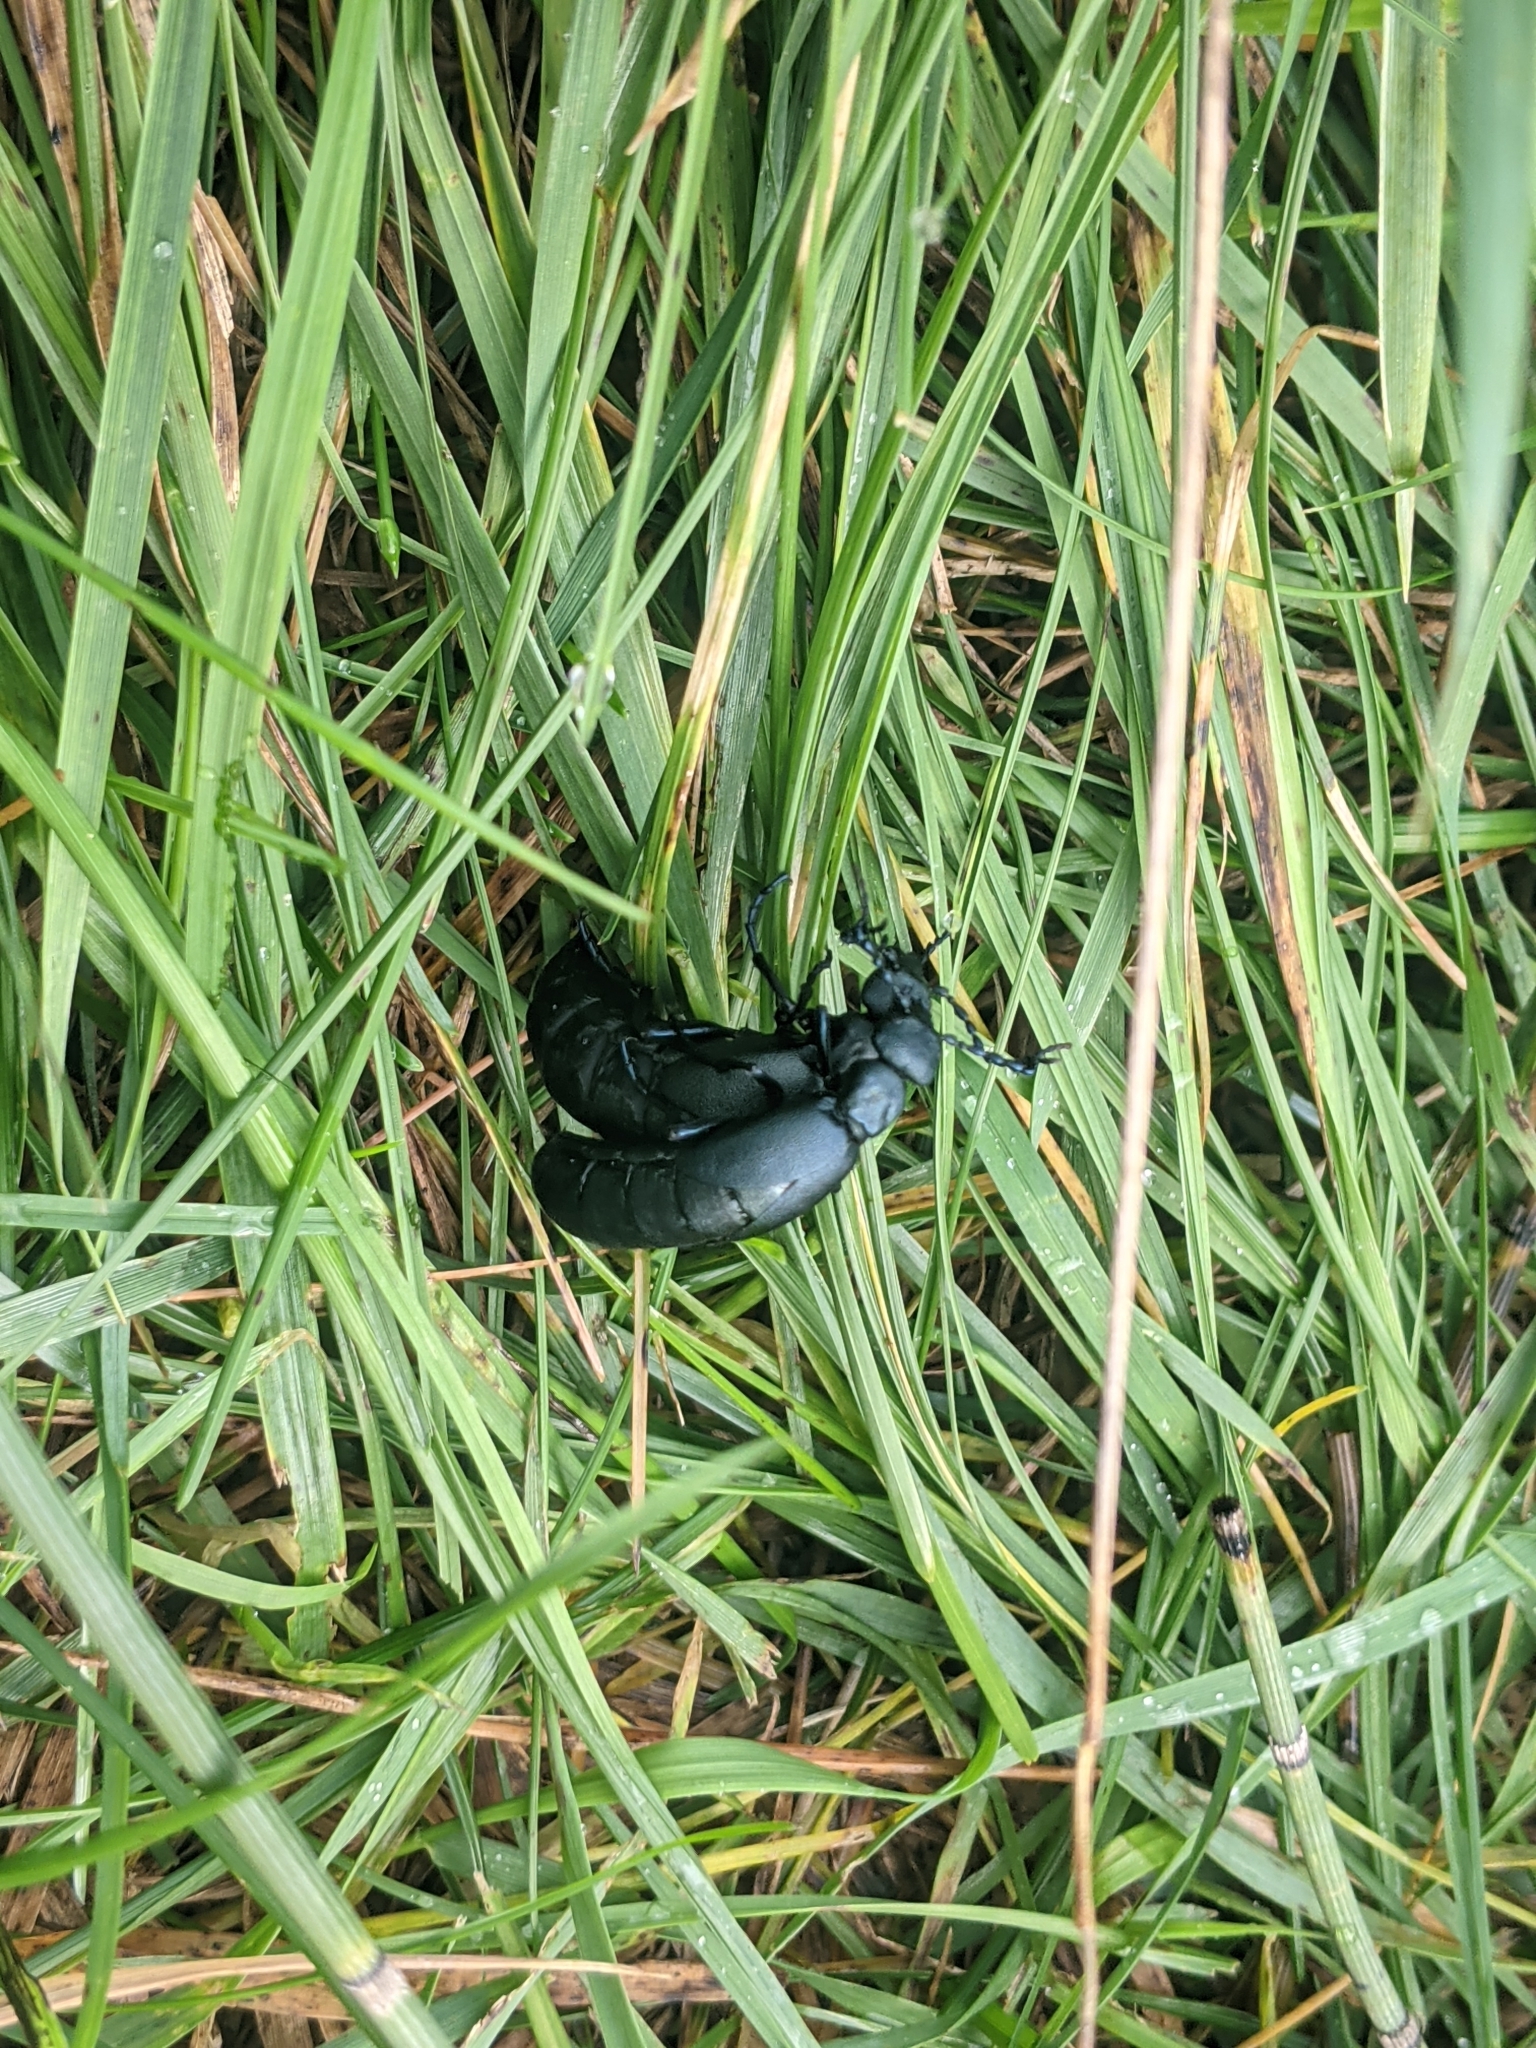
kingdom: Animalia
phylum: Arthropoda
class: Insecta
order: Coleoptera
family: Meloidae
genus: Meloe
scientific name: Meloe campanicollis
